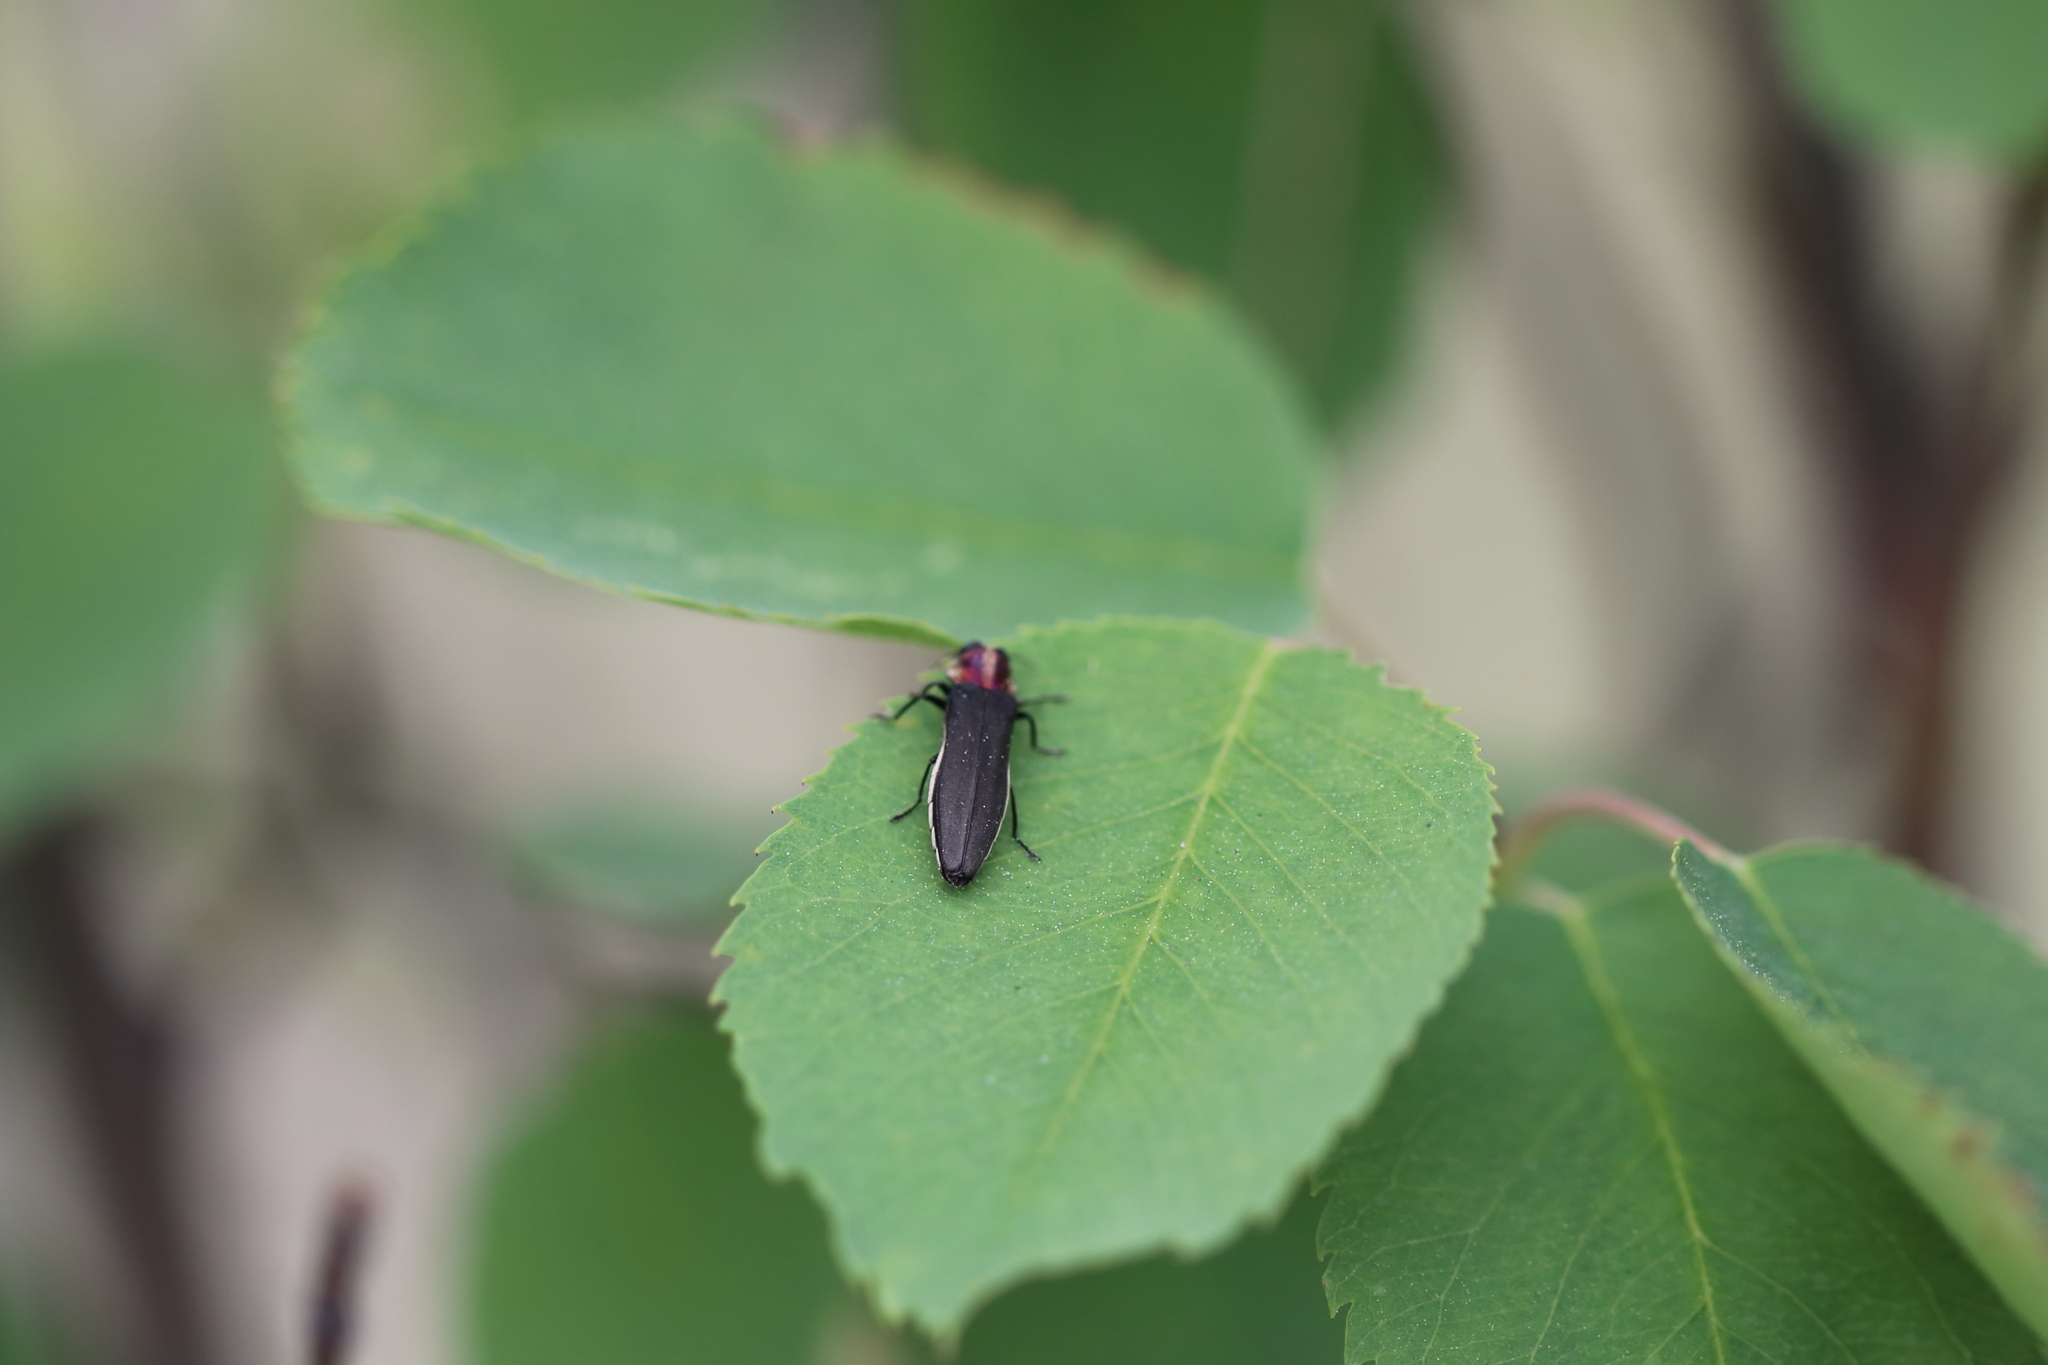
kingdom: Animalia
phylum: Arthropoda
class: Insecta
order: Coleoptera
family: Buprestidae
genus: Agrilus
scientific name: Agrilus vittaticollis
